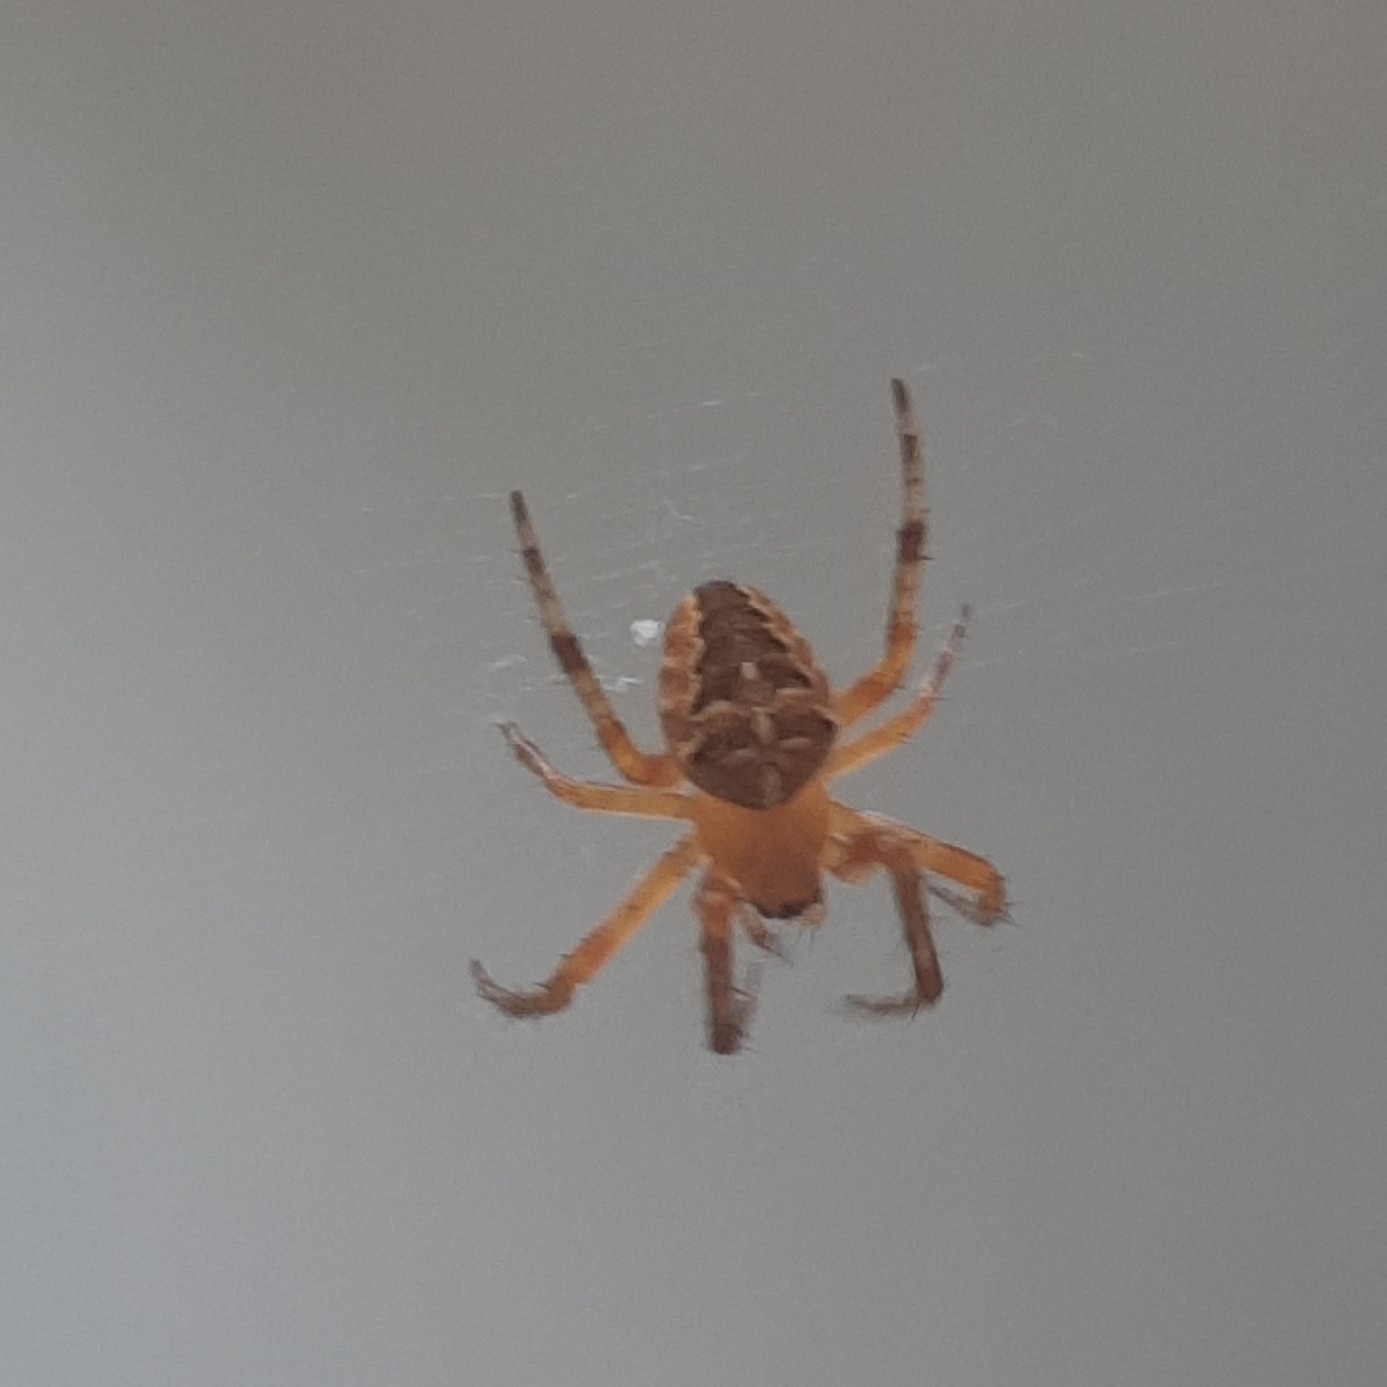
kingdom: Animalia
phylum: Arthropoda
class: Arachnida
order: Araneae
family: Araneidae
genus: Araneus
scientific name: Araneus diadematus
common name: Cross orbweaver
